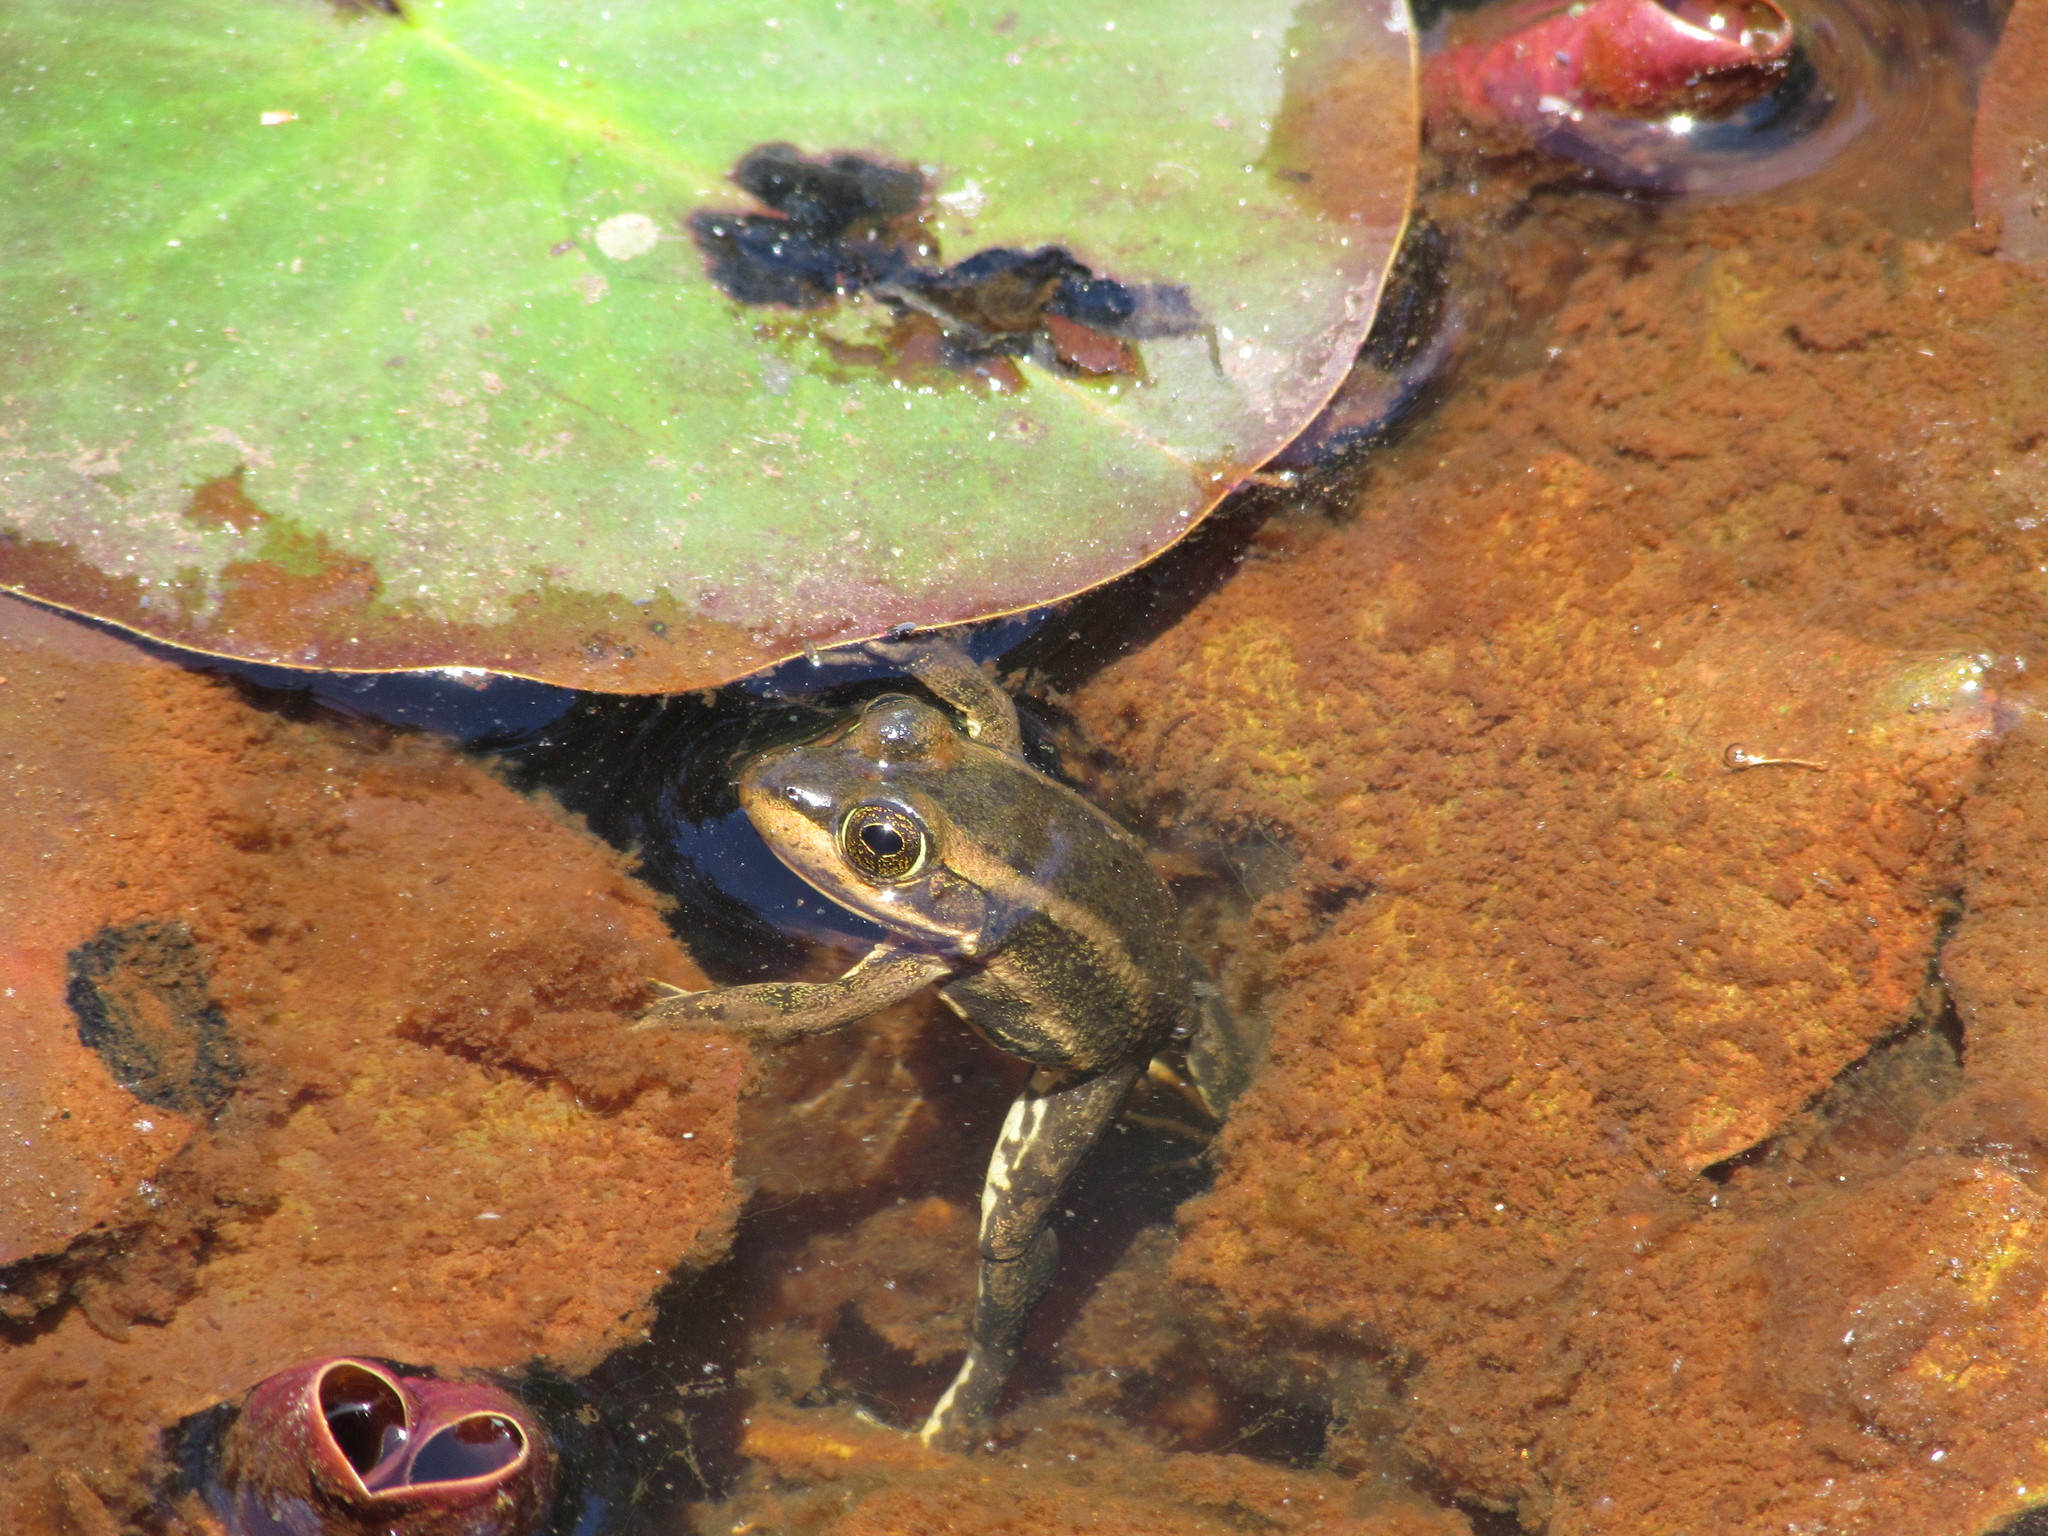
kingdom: Animalia
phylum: Chordata
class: Amphibia
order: Anura
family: Ranidae
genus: Lithobates
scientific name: Lithobates virgatipes
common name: Carpenter frog
